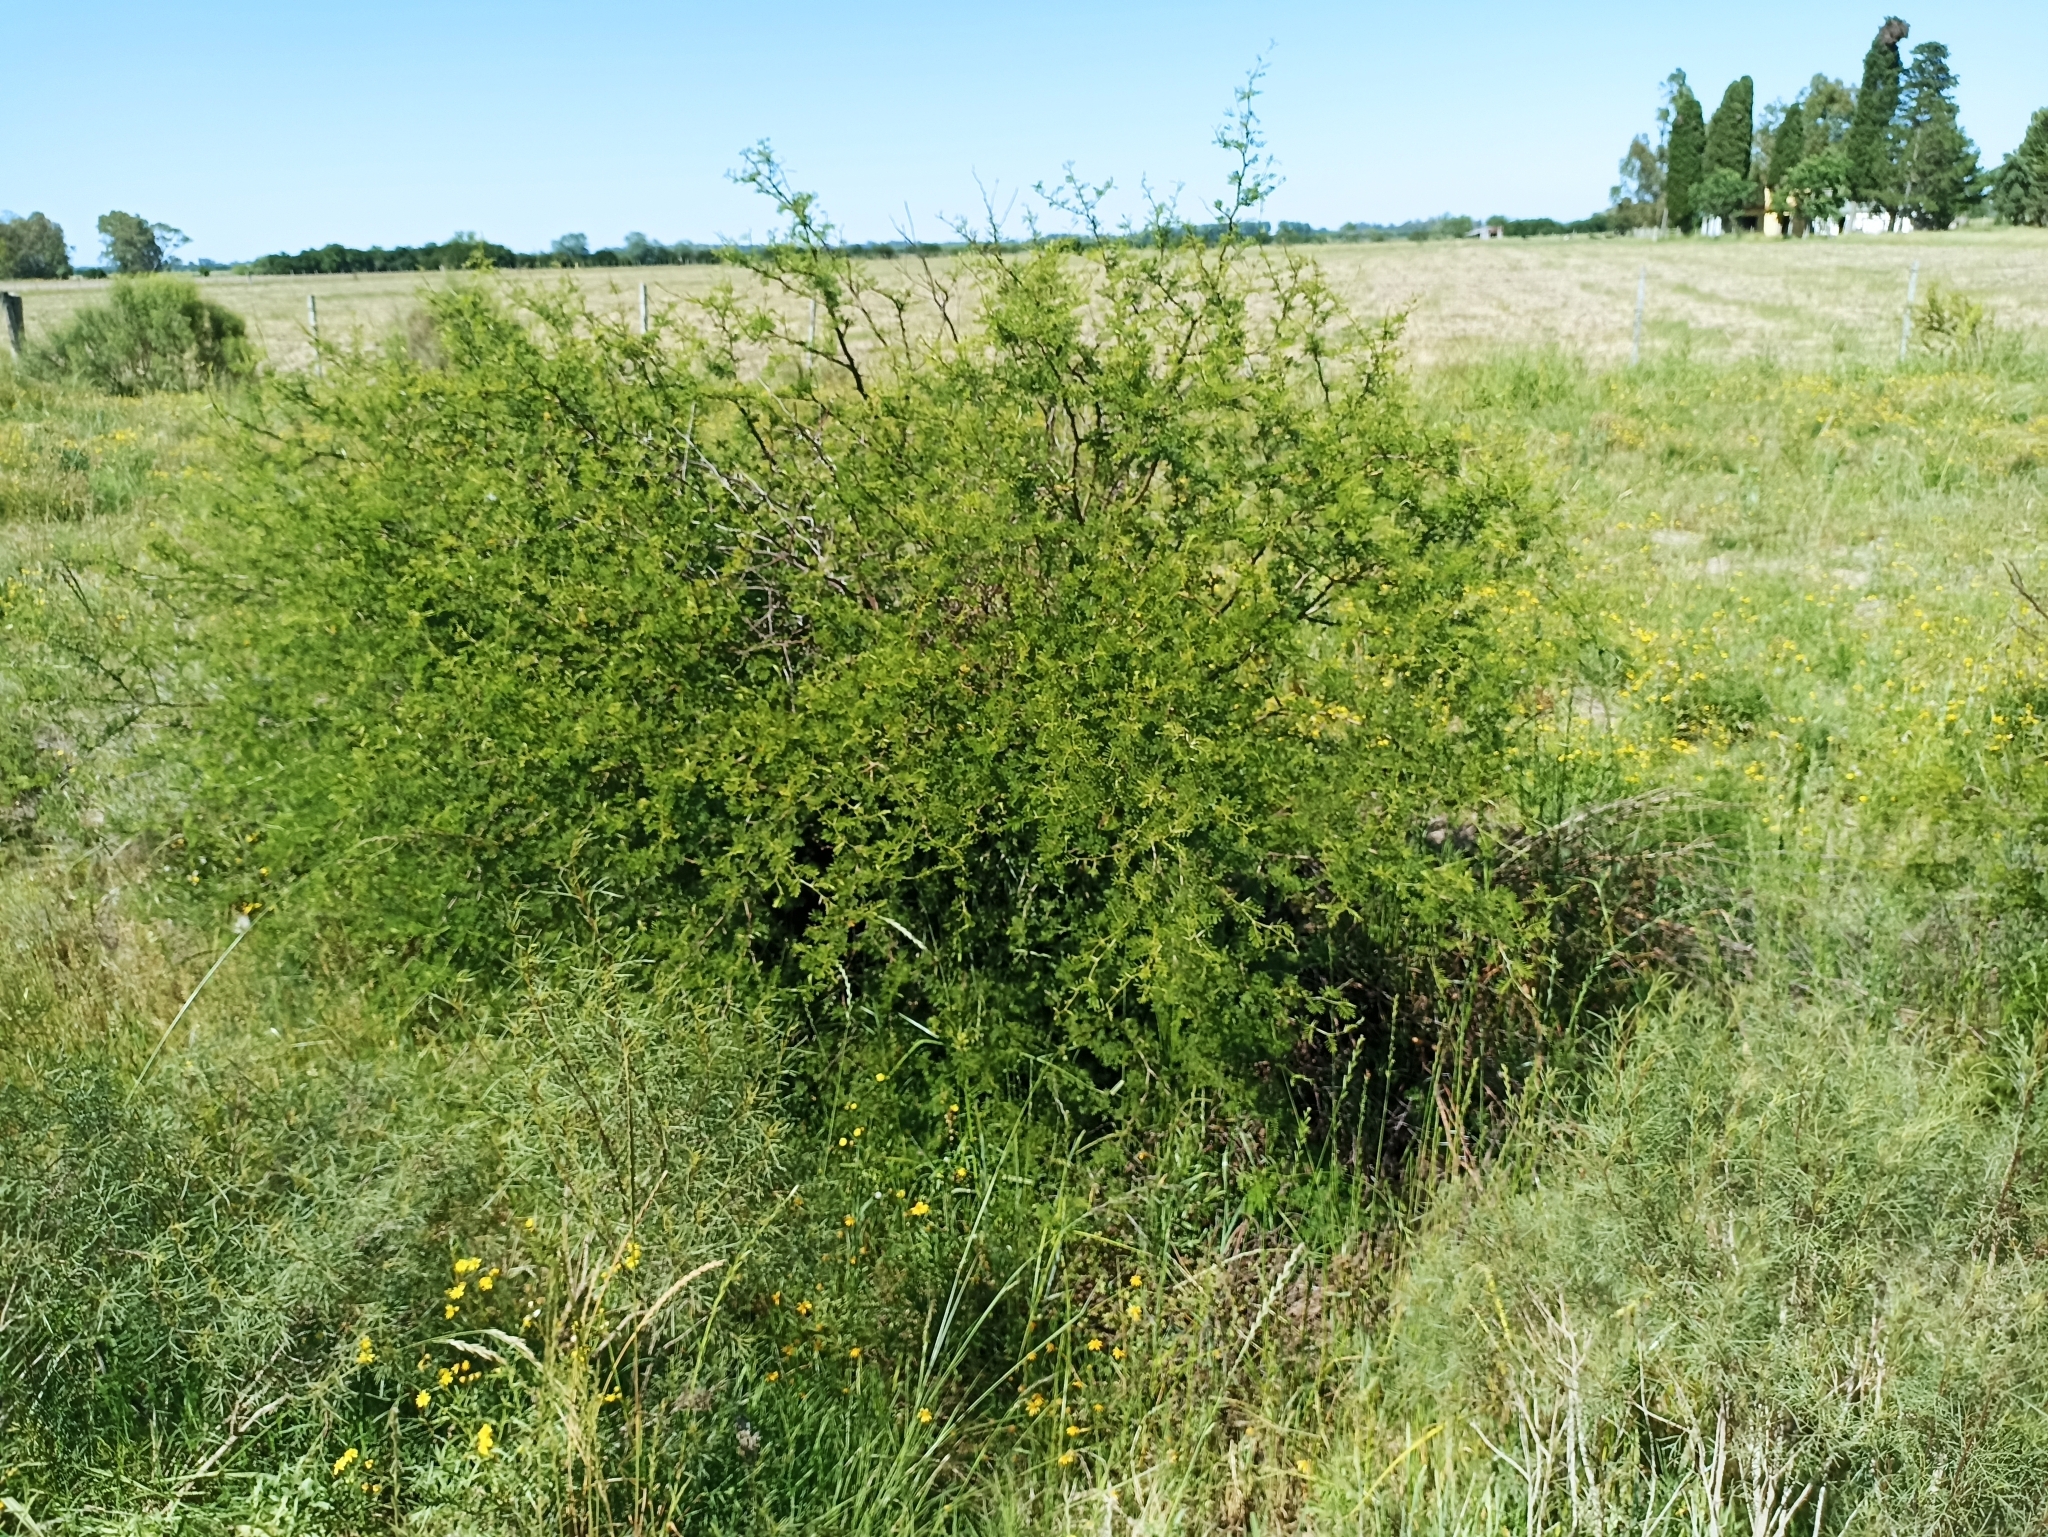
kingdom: Plantae
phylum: Tracheophyta
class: Magnoliopsida
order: Fabales
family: Fabaceae
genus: Vachellia
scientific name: Vachellia caven
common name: Roman cassie
